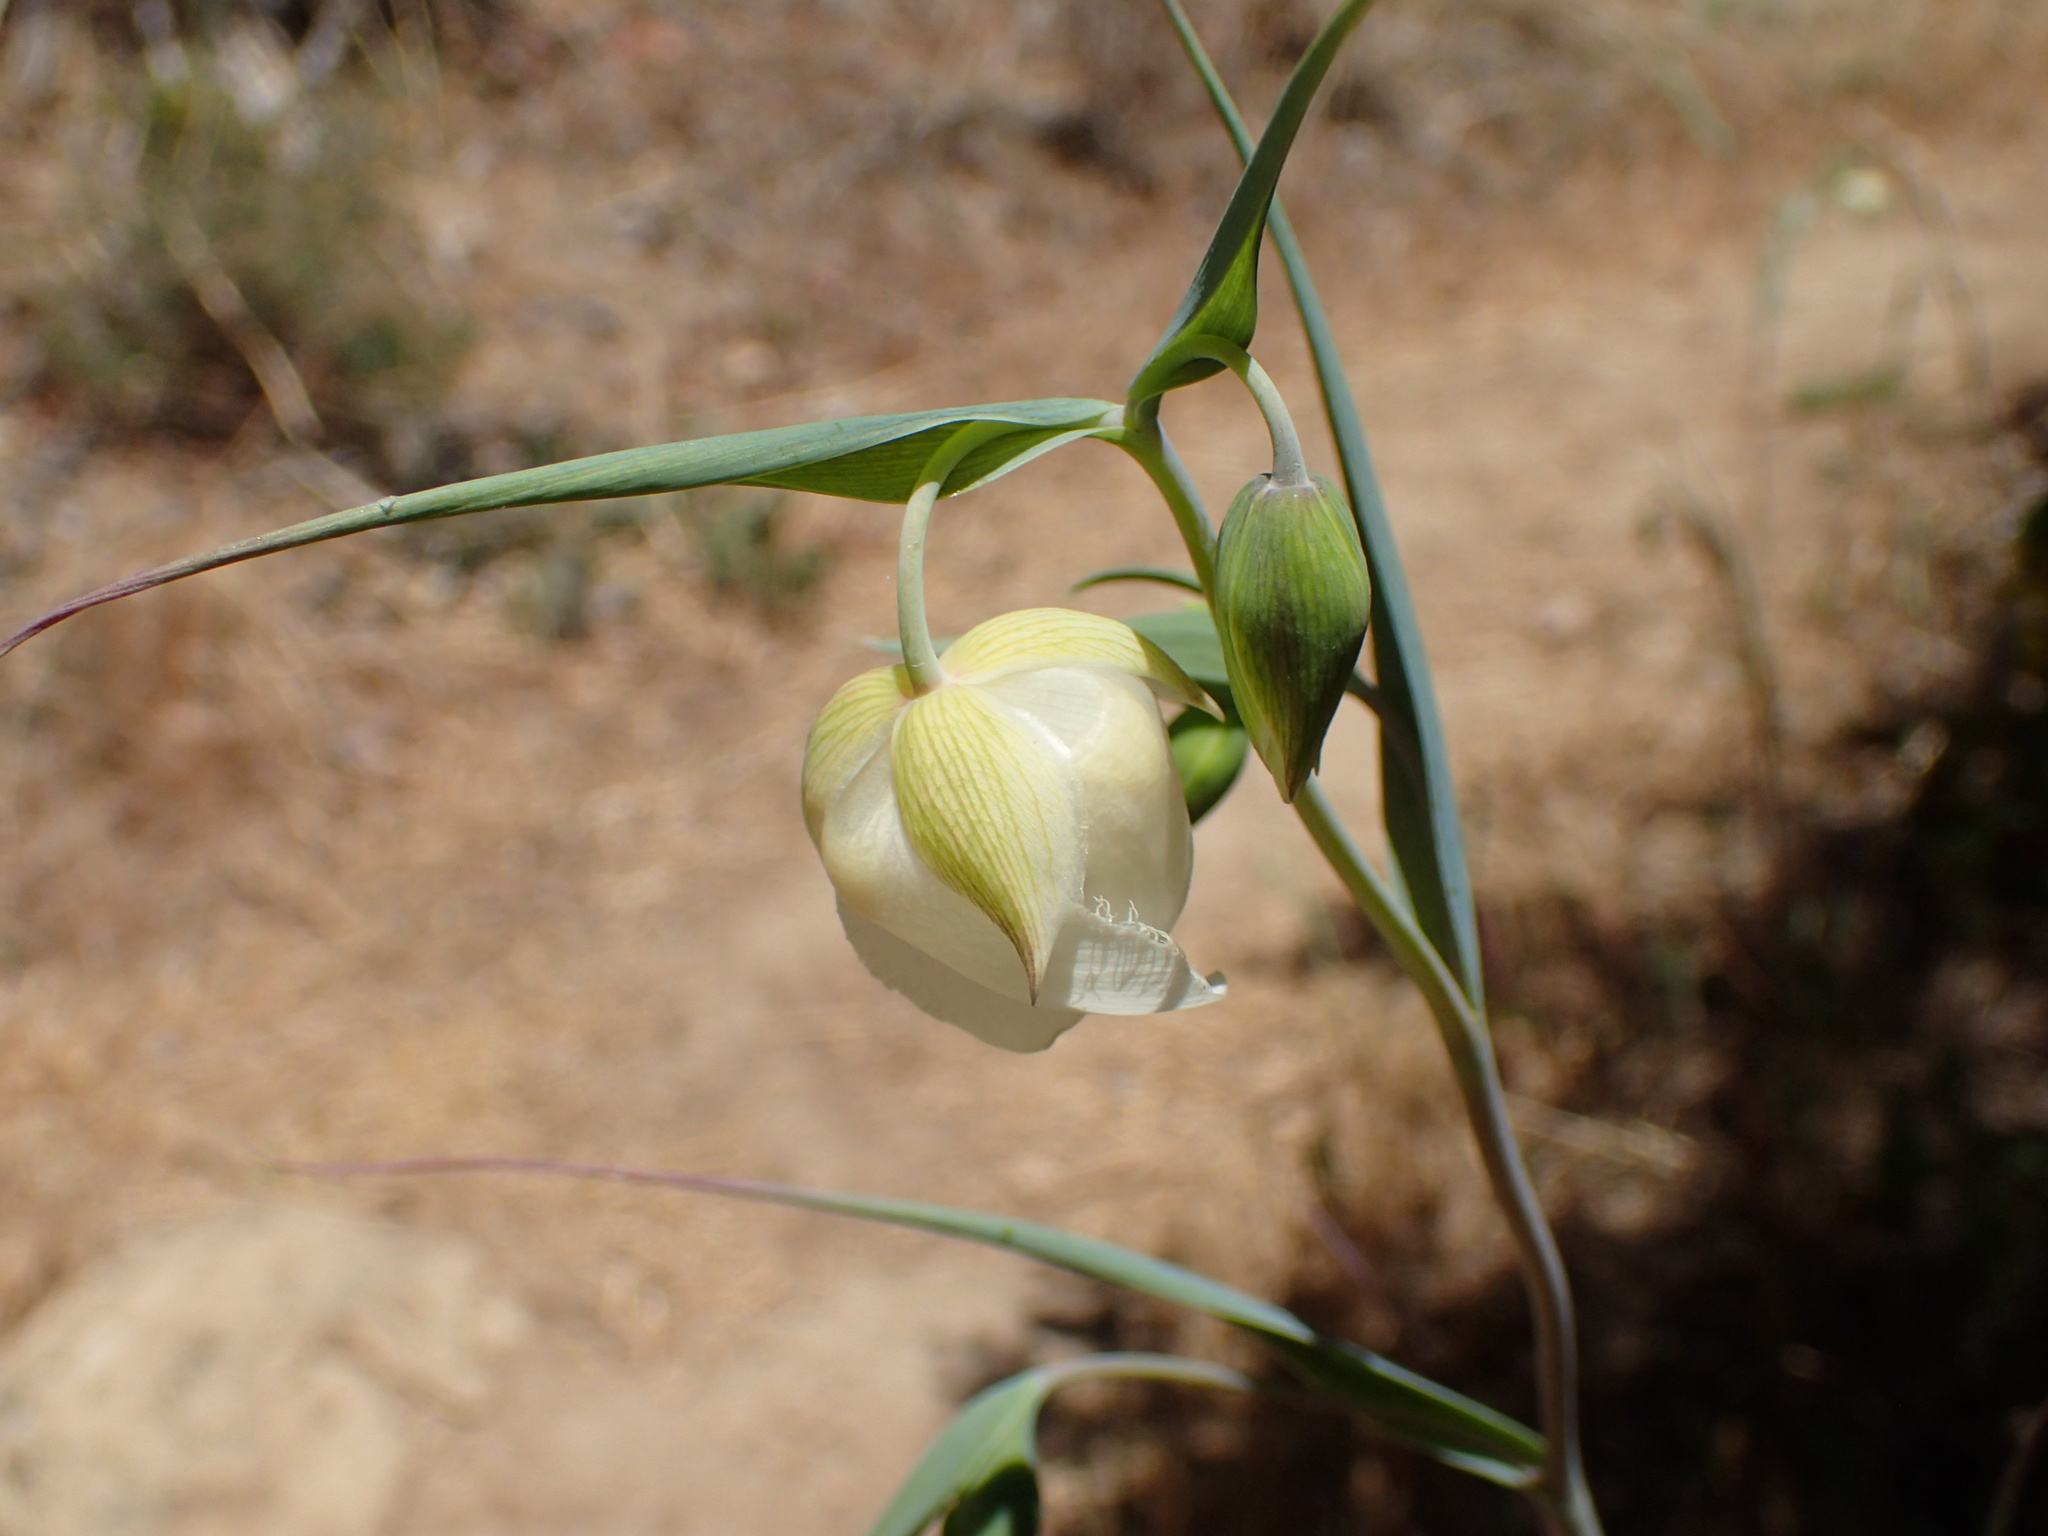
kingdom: Plantae
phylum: Tracheophyta
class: Liliopsida
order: Liliales
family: Liliaceae
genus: Calochortus
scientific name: Calochortus albus
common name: Fairy-lantern
